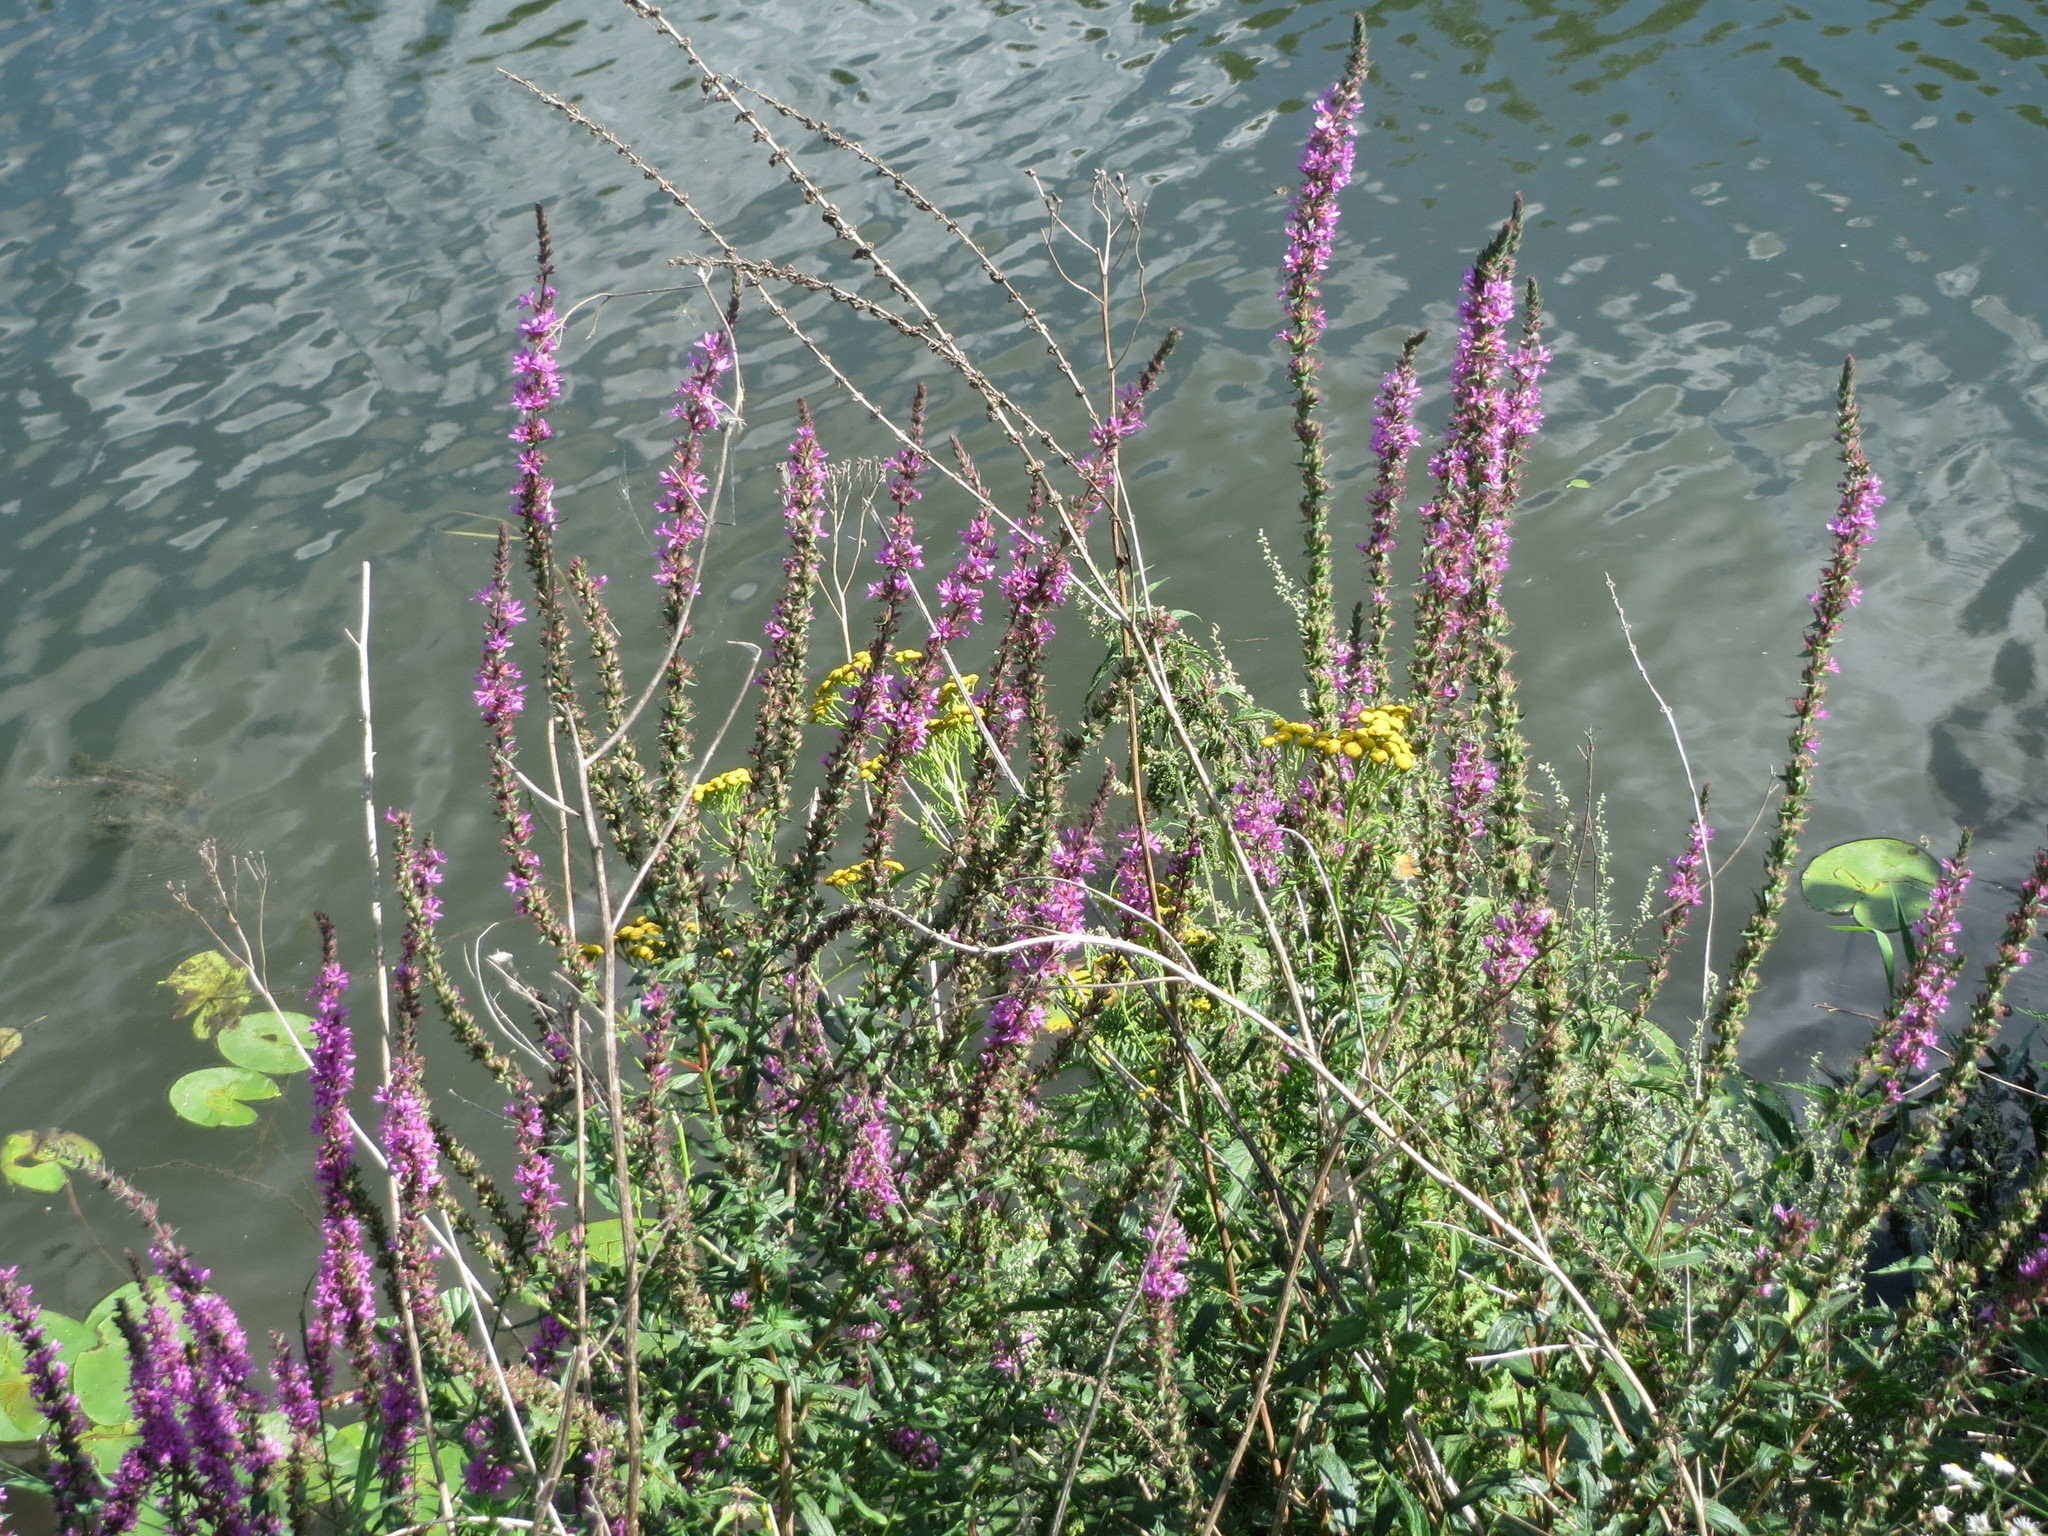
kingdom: Plantae
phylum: Tracheophyta
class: Magnoliopsida
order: Myrtales
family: Lythraceae
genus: Lythrum
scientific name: Lythrum salicaria
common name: Purple loosestrife
